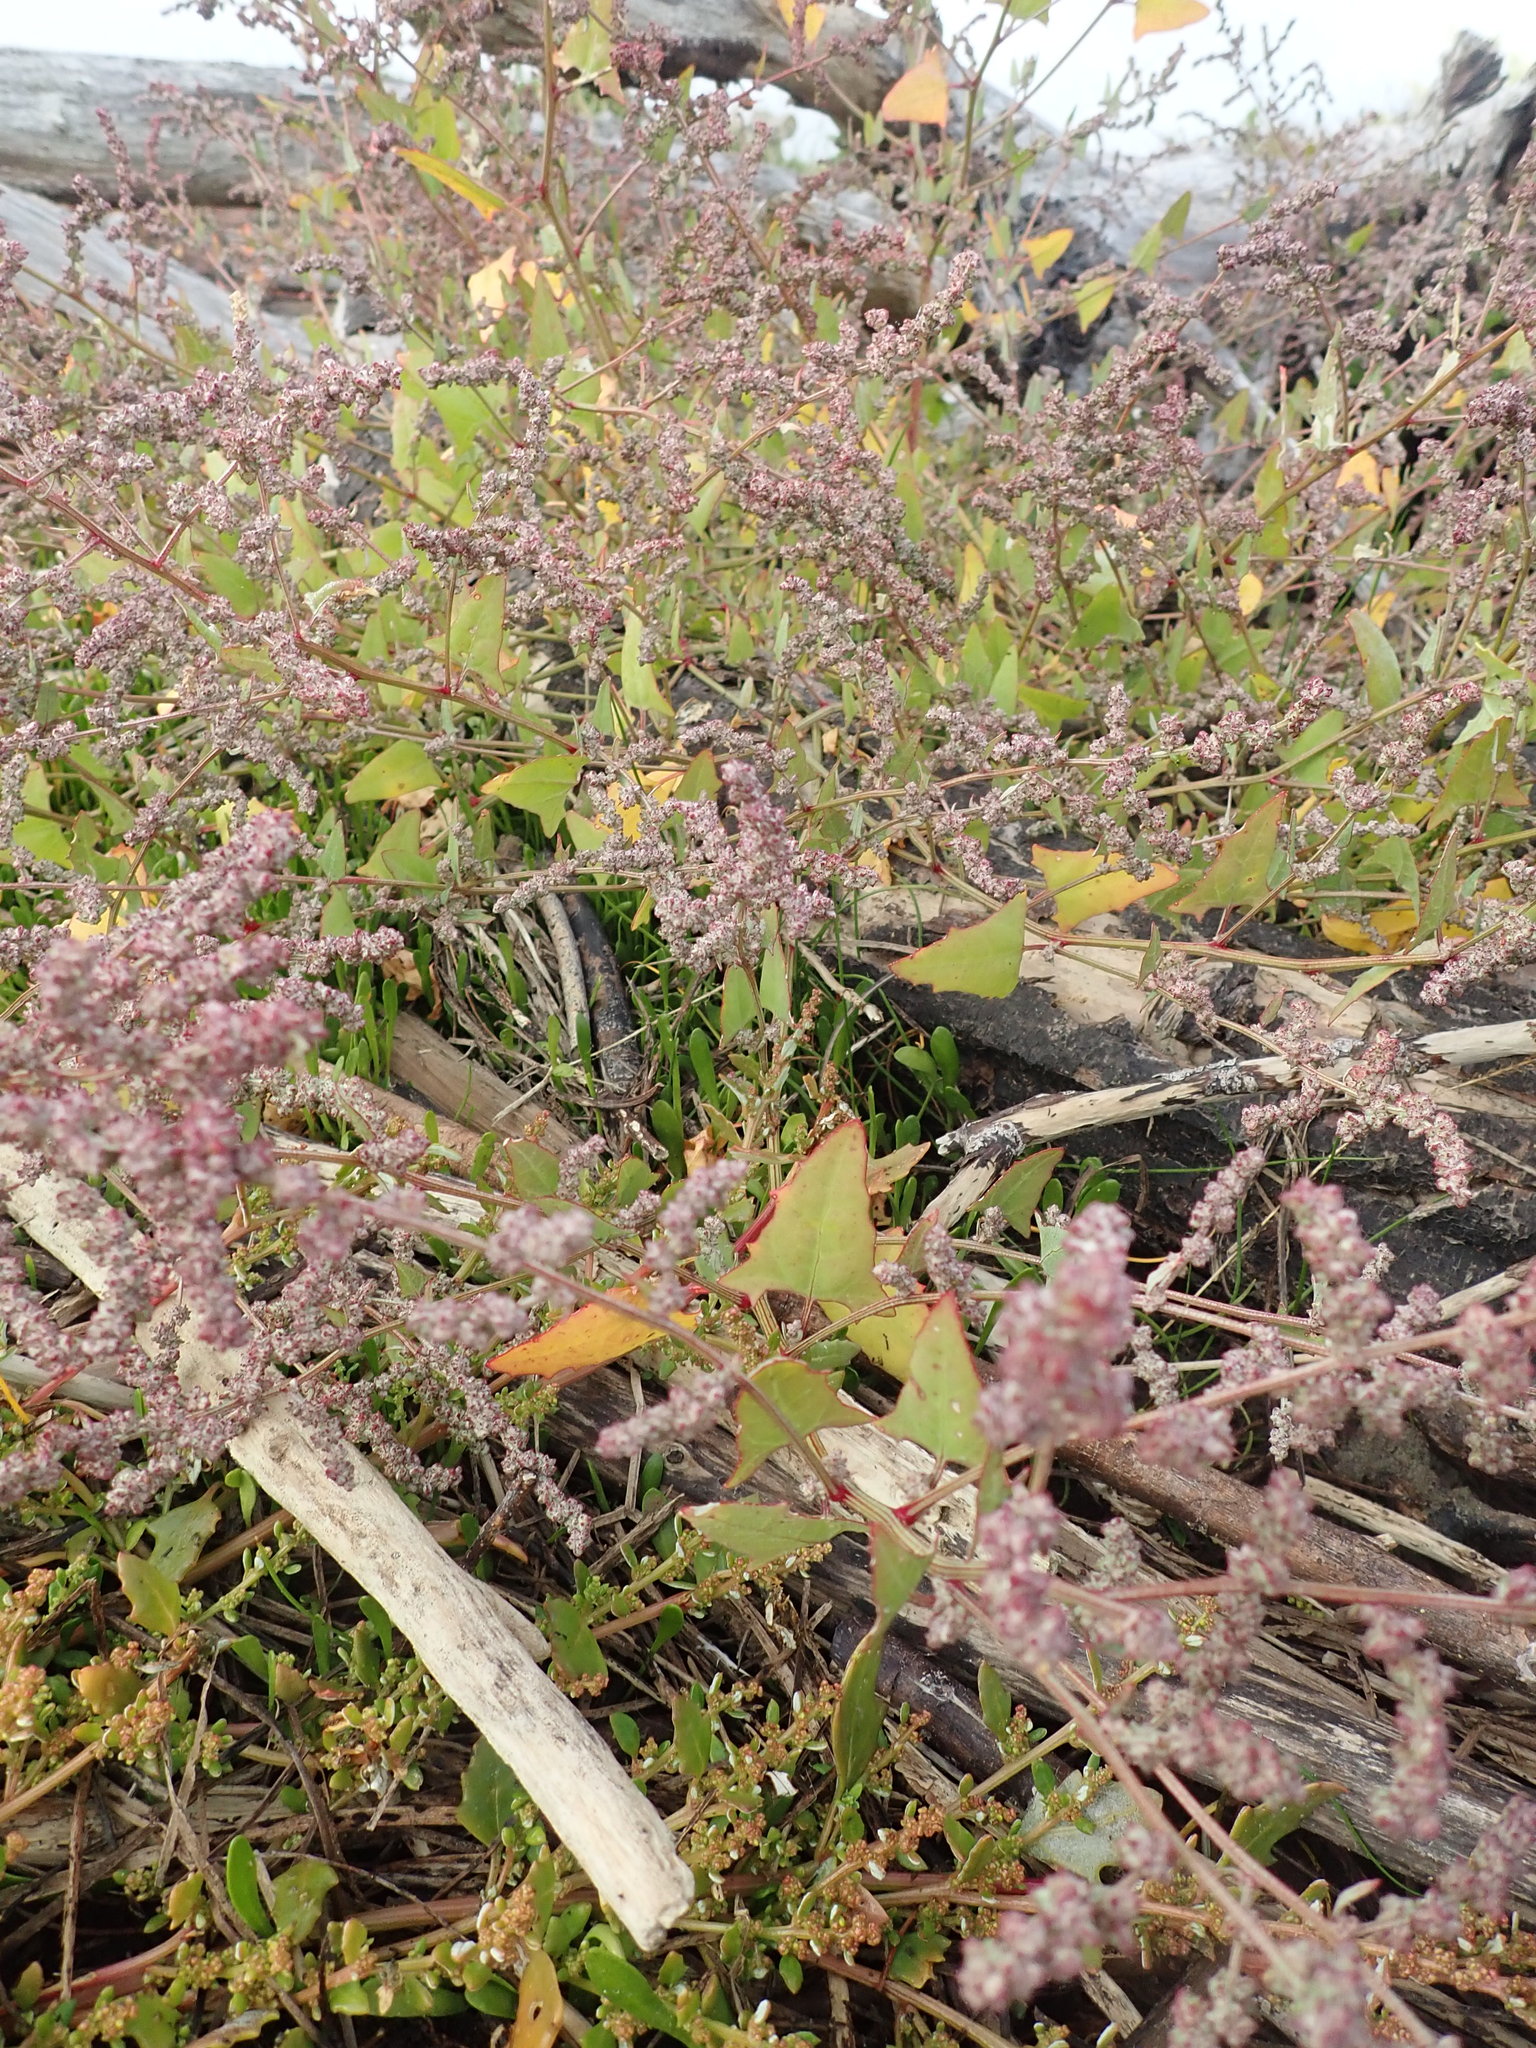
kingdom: Plantae
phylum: Tracheophyta
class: Magnoliopsida
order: Caryophyllales
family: Amaranthaceae
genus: Atriplex
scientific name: Atriplex prostrata
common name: Spear-leaved orache
